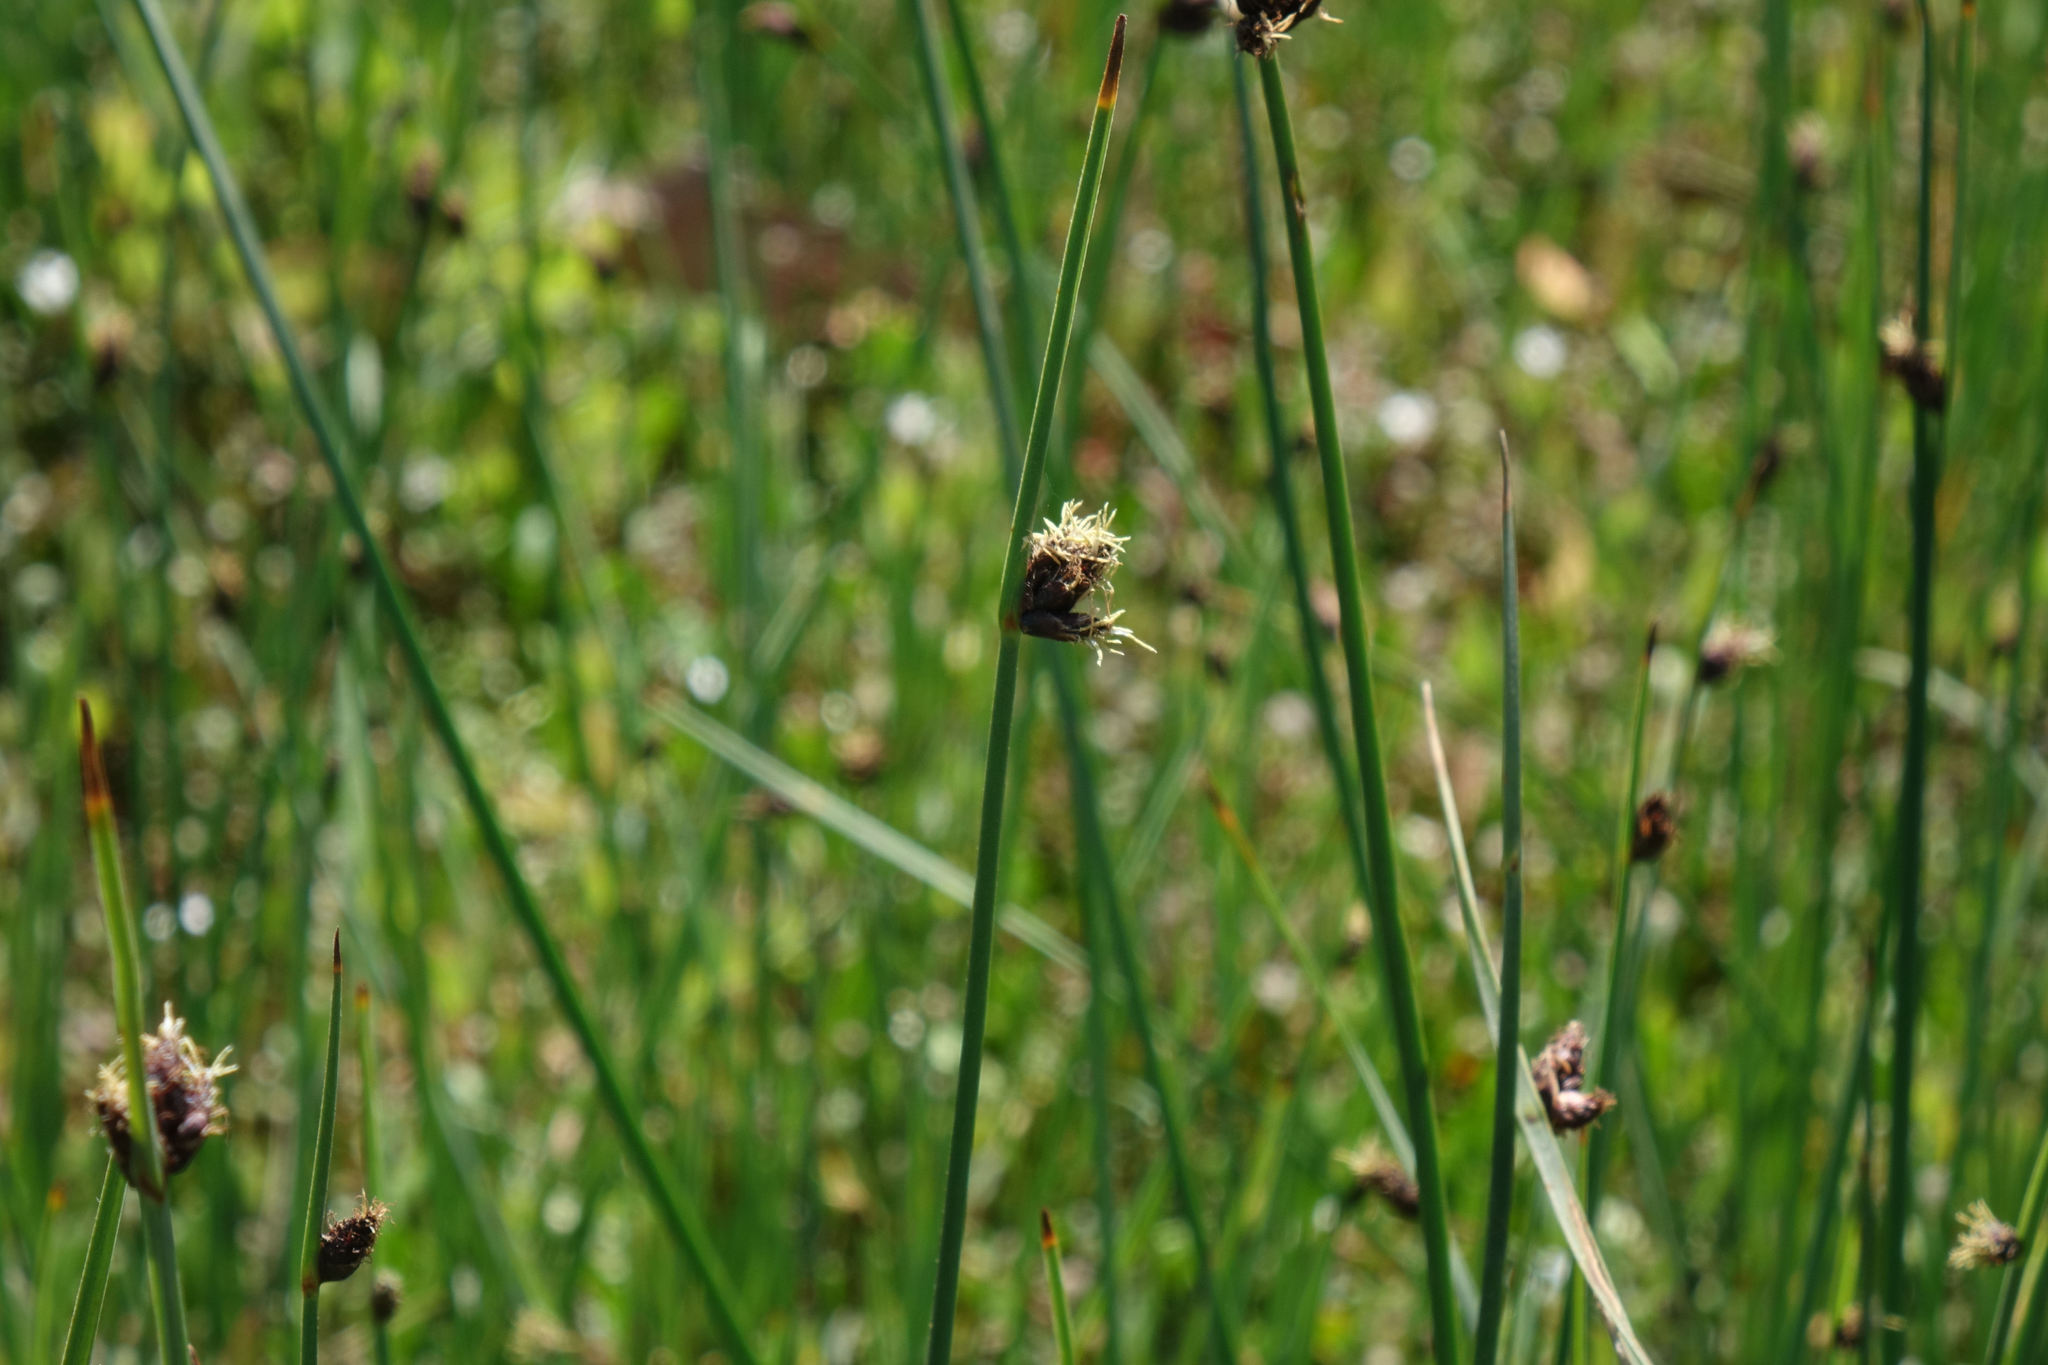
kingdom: Plantae
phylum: Tracheophyta
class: Liliopsida
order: Poales
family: Cyperaceae
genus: Schoenoplectus
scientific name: Schoenoplectus pungens
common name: Sharp club-rush
